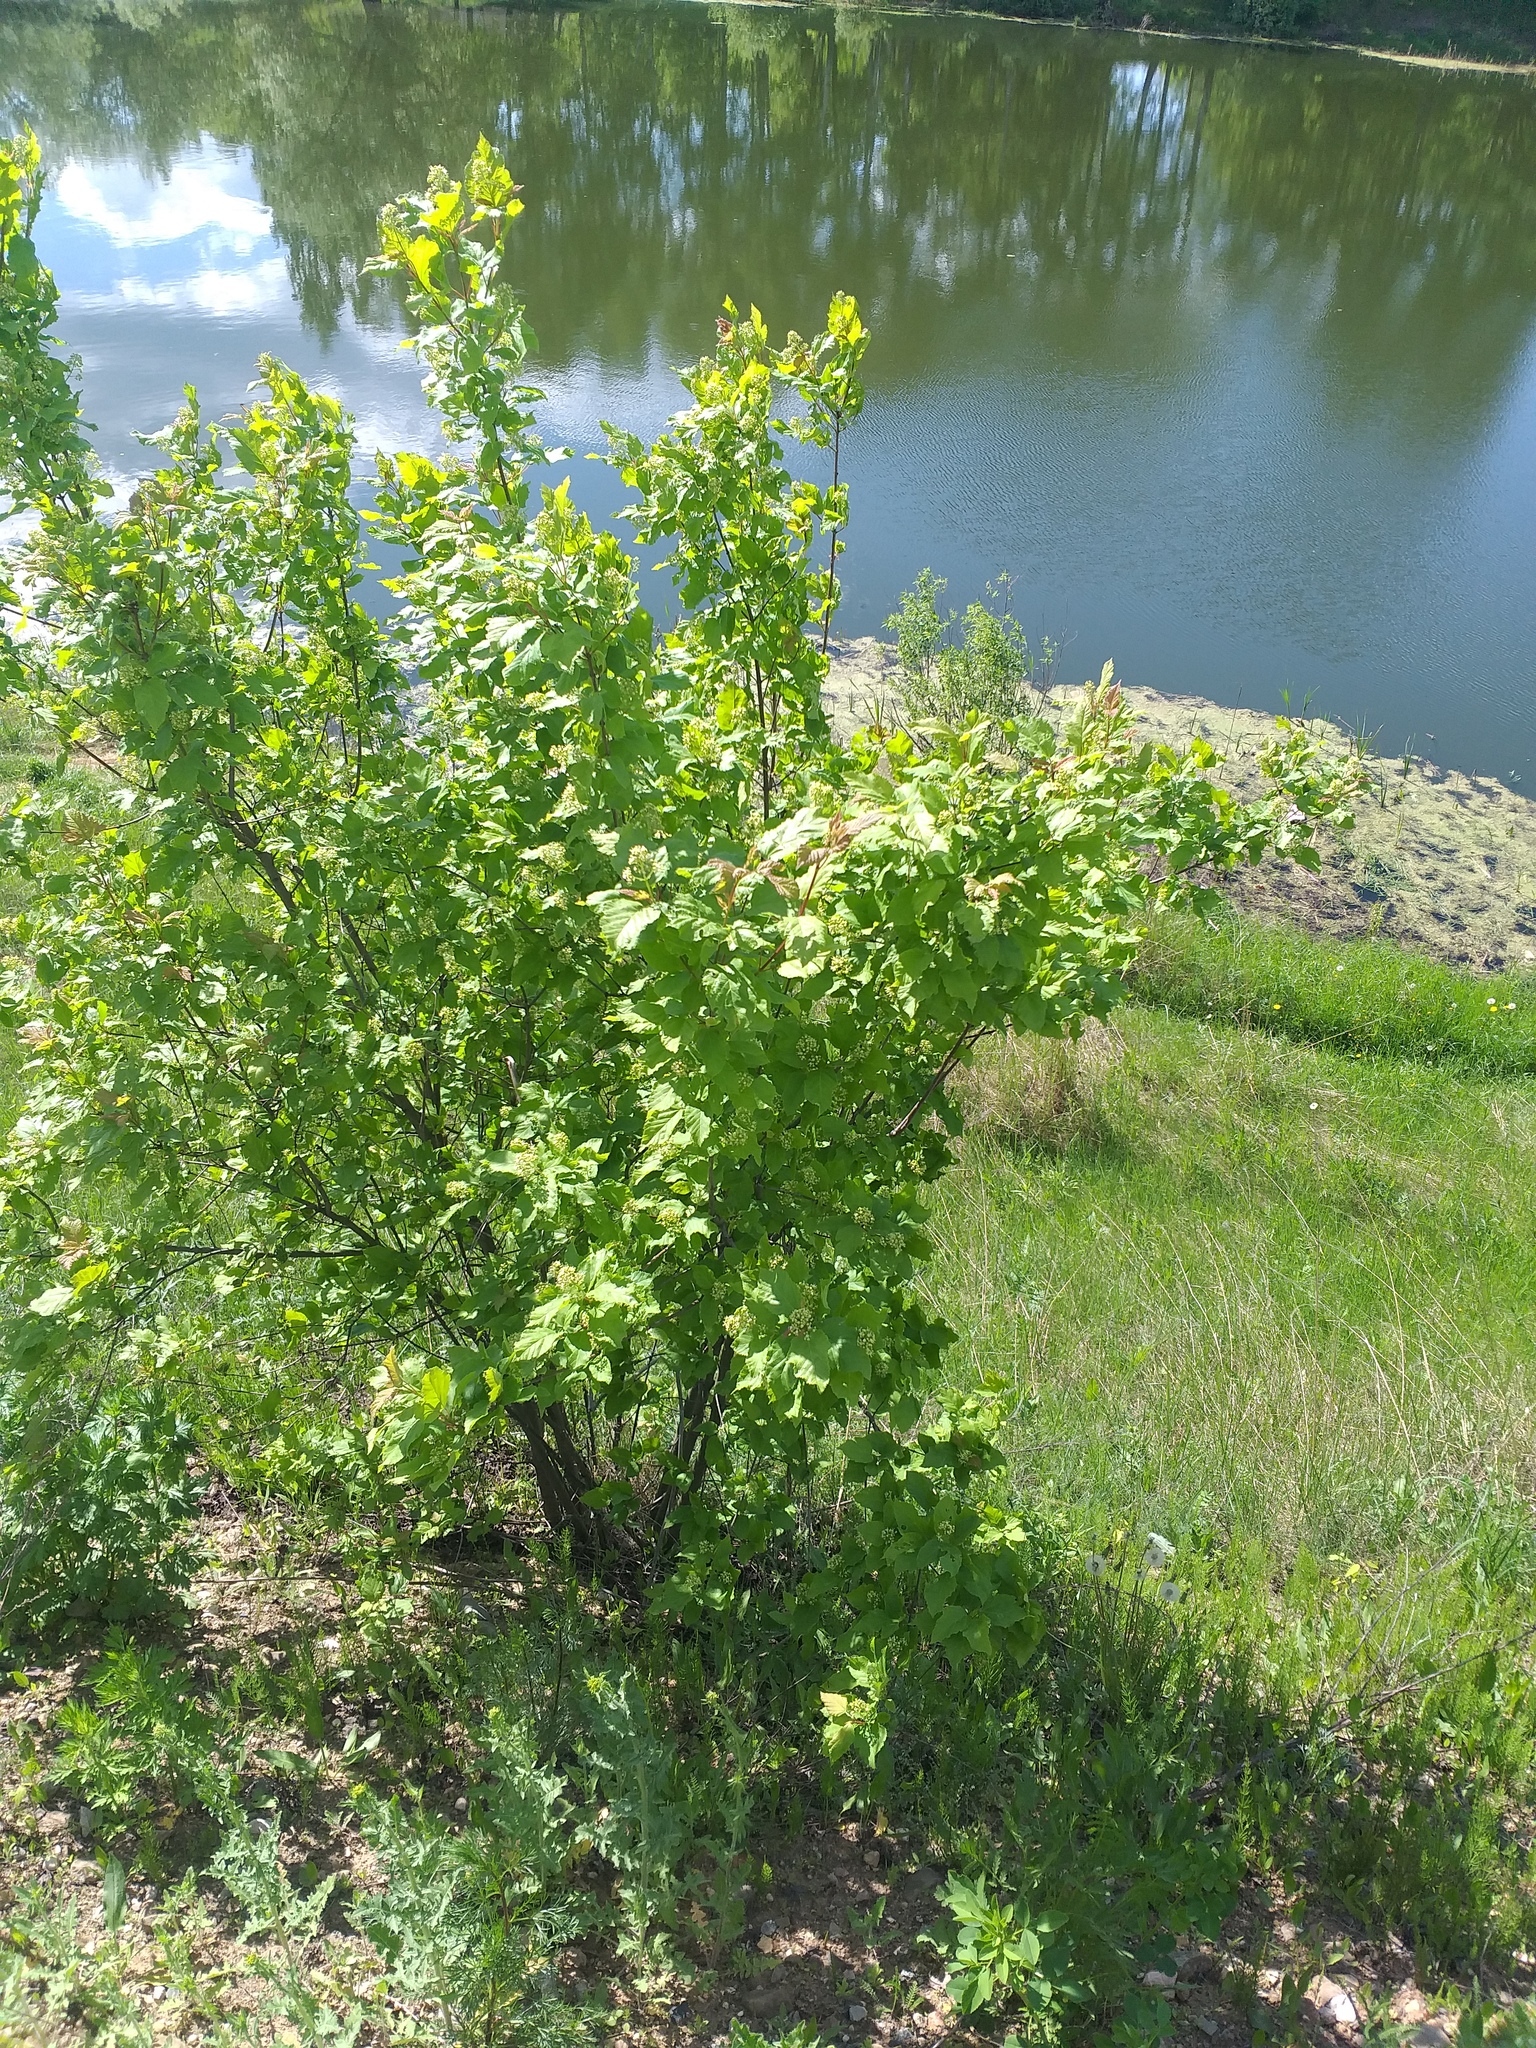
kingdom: Plantae
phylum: Tracheophyta
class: Magnoliopsida
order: Sapindales
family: Sapindaceae
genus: Acer
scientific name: Acer tataricum
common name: Tartar maple
